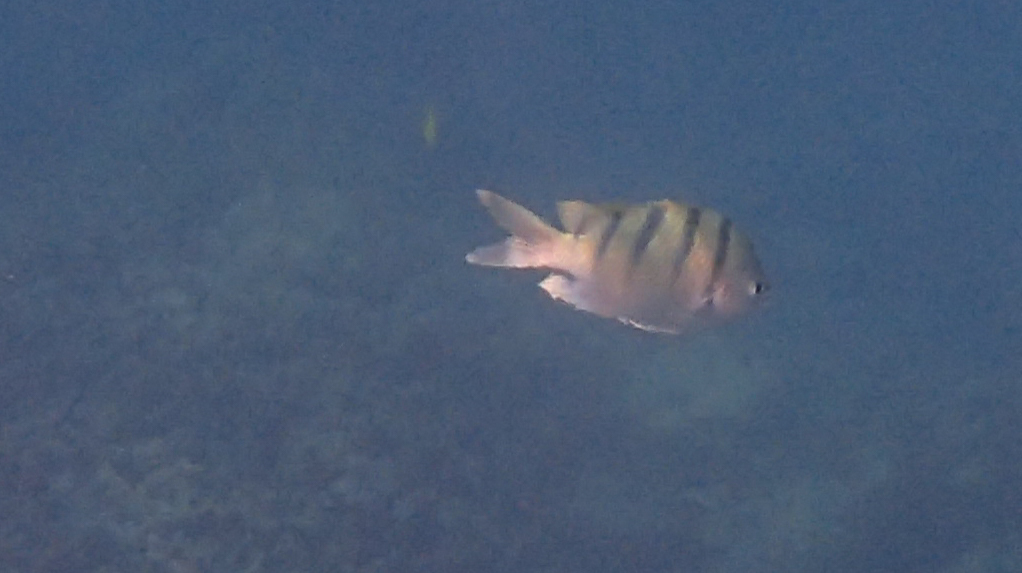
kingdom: Animalia
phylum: Chordata
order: Perciformes
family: Pomacentridae
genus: Abudefduf
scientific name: Abudefduf abdominalis
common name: Green damselfish
